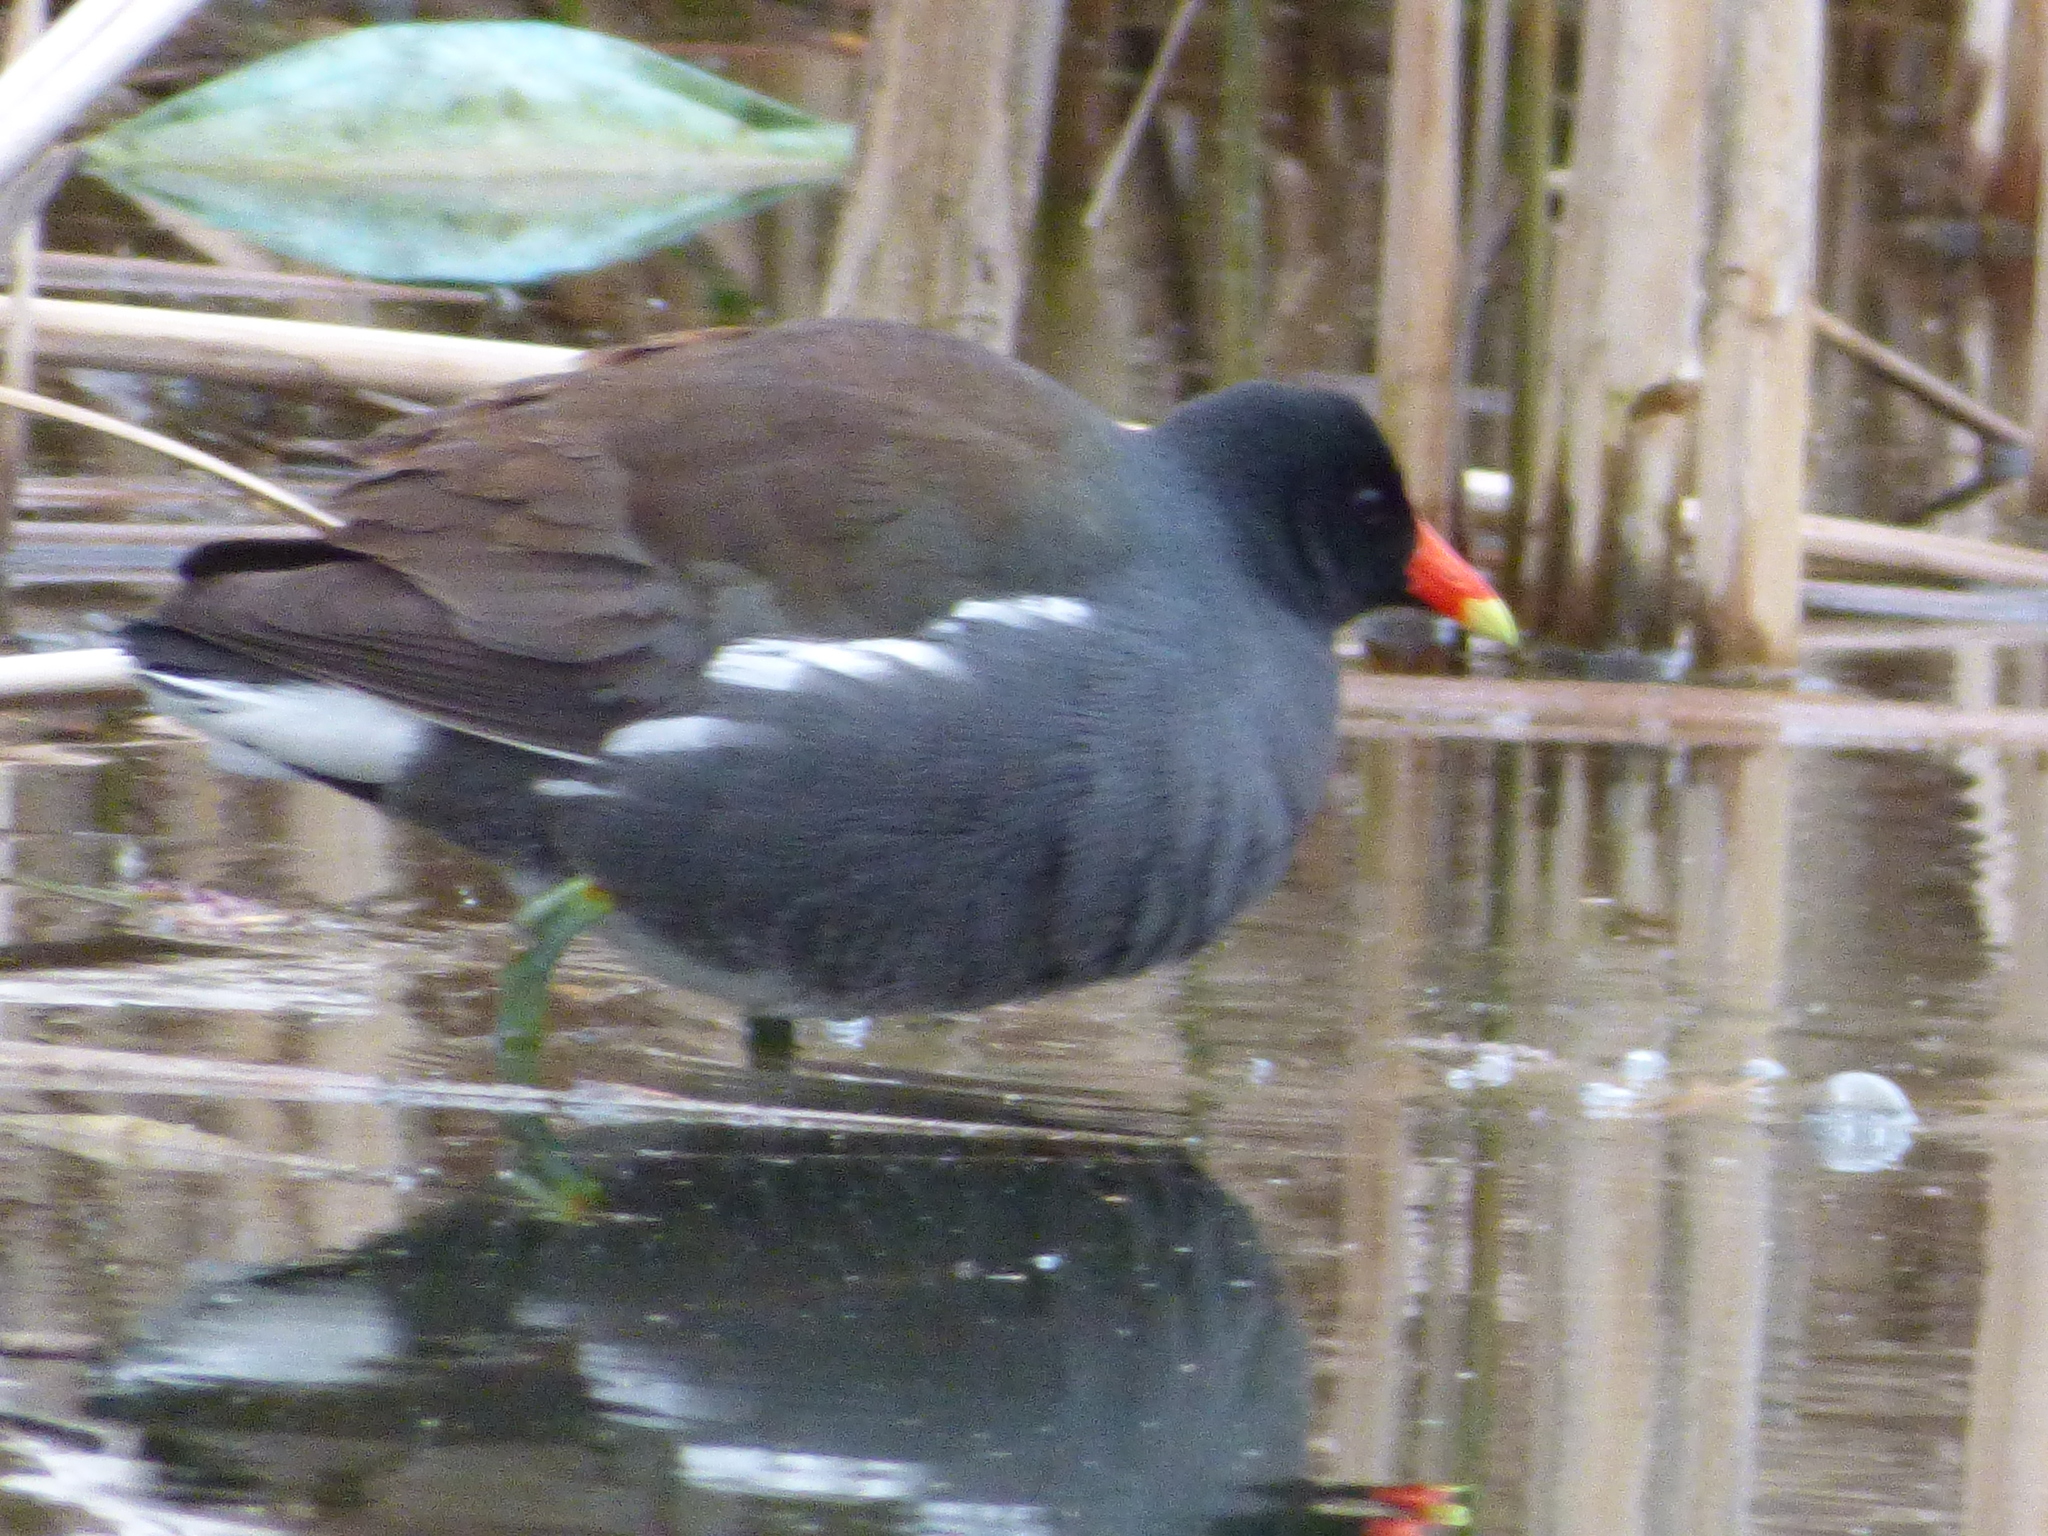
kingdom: Animalia
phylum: Chordata
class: Aves
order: Gruiformes
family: Rallidae
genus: Gallinula
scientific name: Gallinula chloropus
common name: Common moorhen
